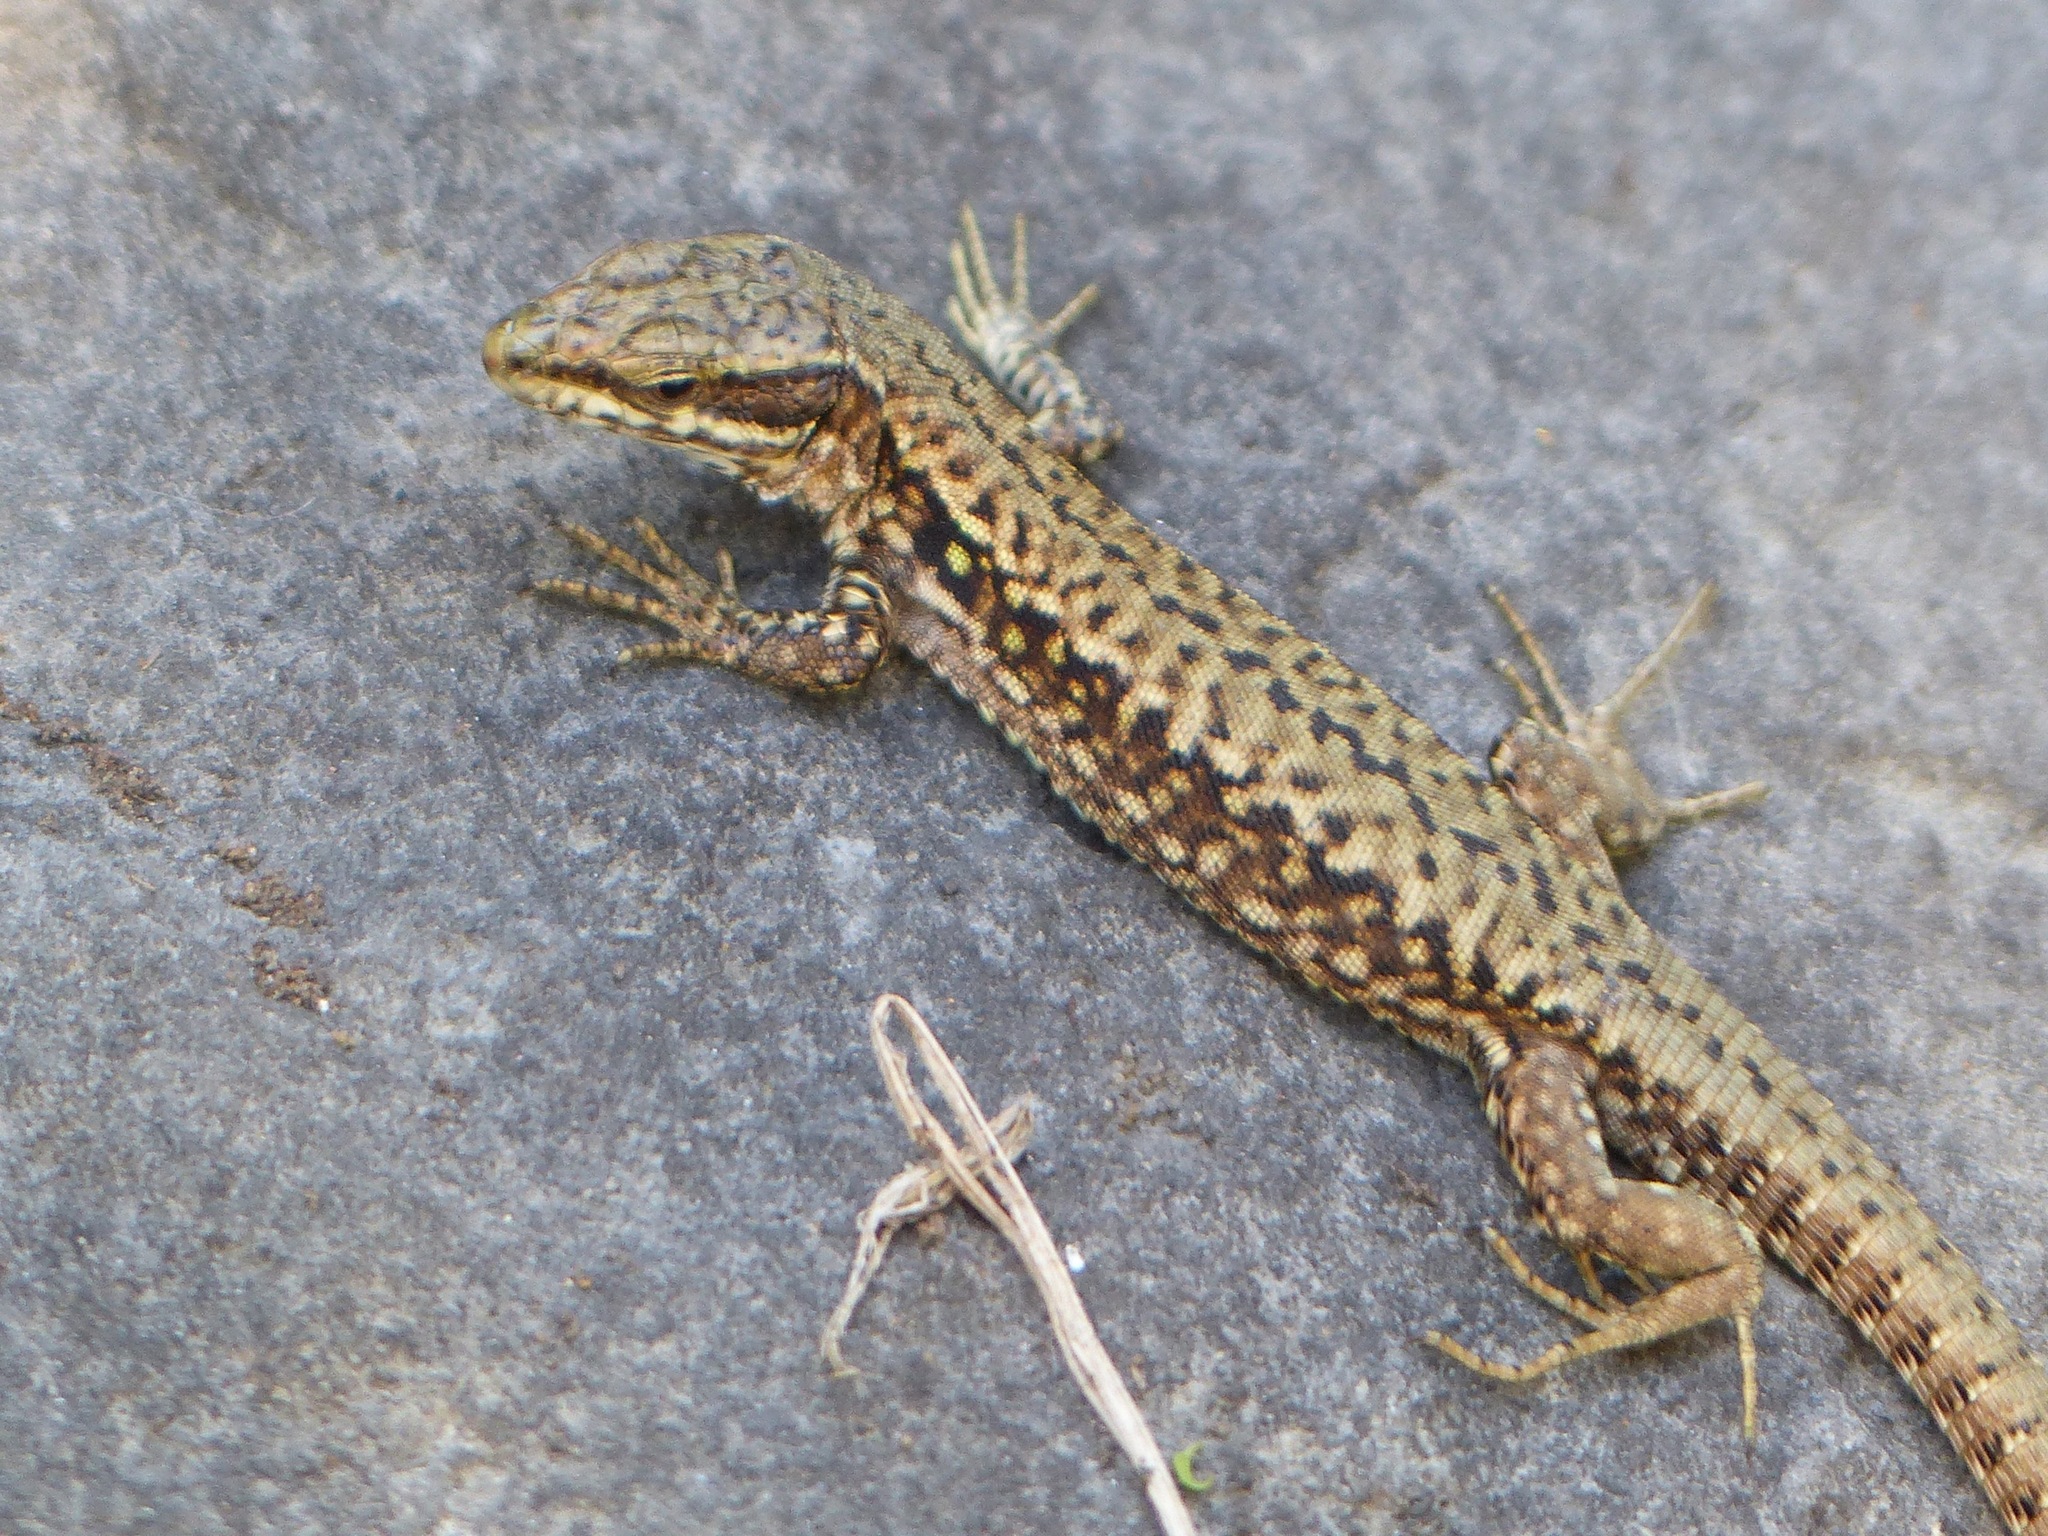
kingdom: Animalia
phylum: Chordata
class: Squamata
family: Lacertidae
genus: Podarcis
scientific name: Podarcis muralis
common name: Common wall lizard
